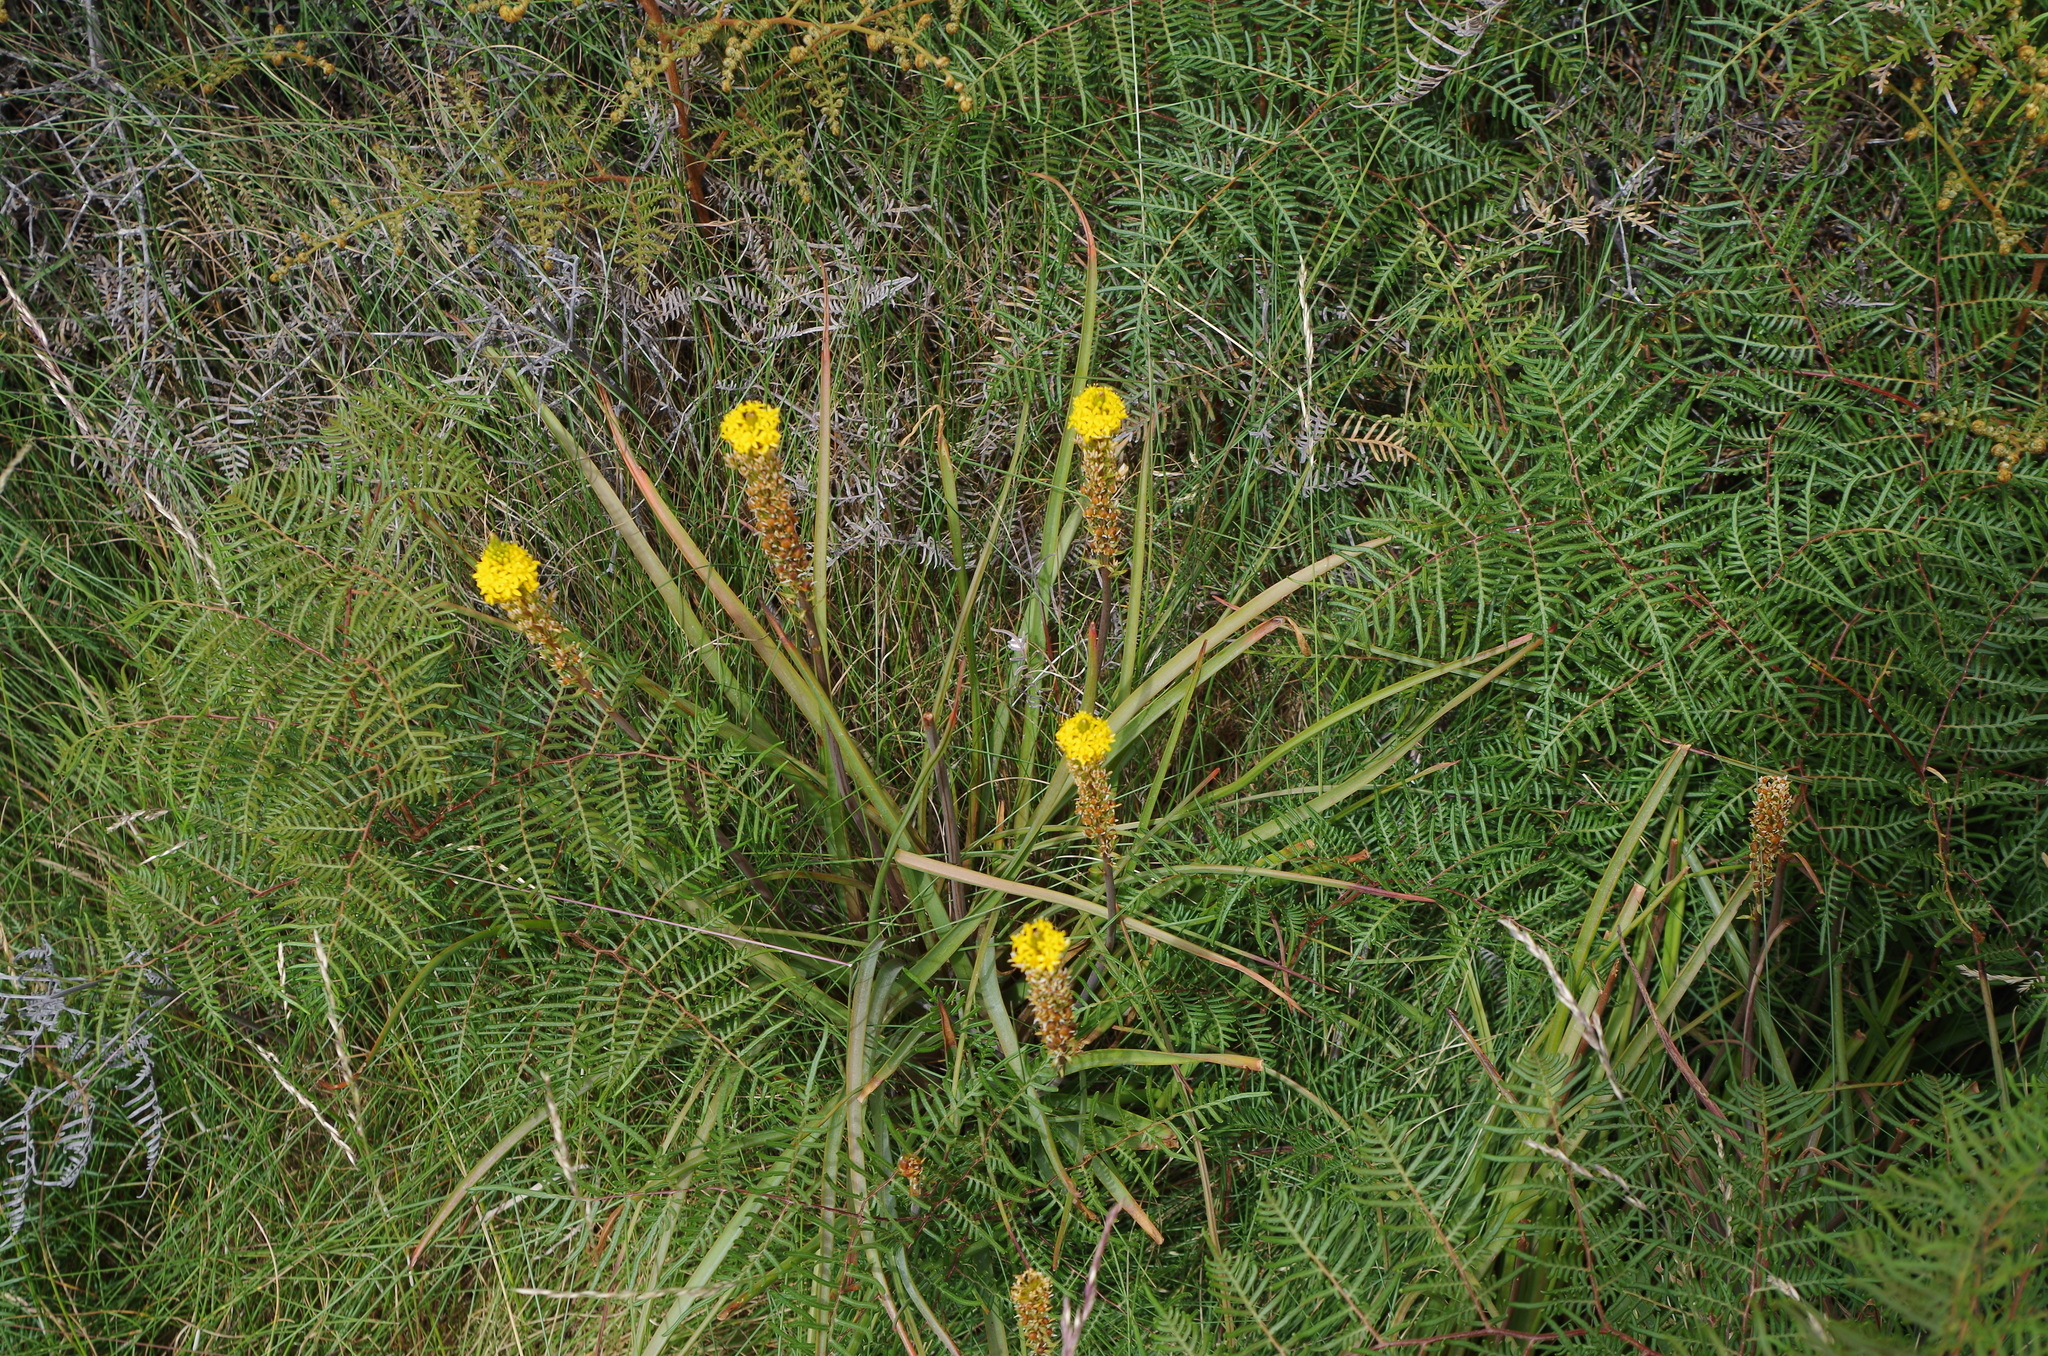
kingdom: Plantae
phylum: Tracheophyta
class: Liliopsida
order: Asparagales
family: Asphodelaceae
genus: Bulbinella
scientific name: Bulbinella angustifolia
